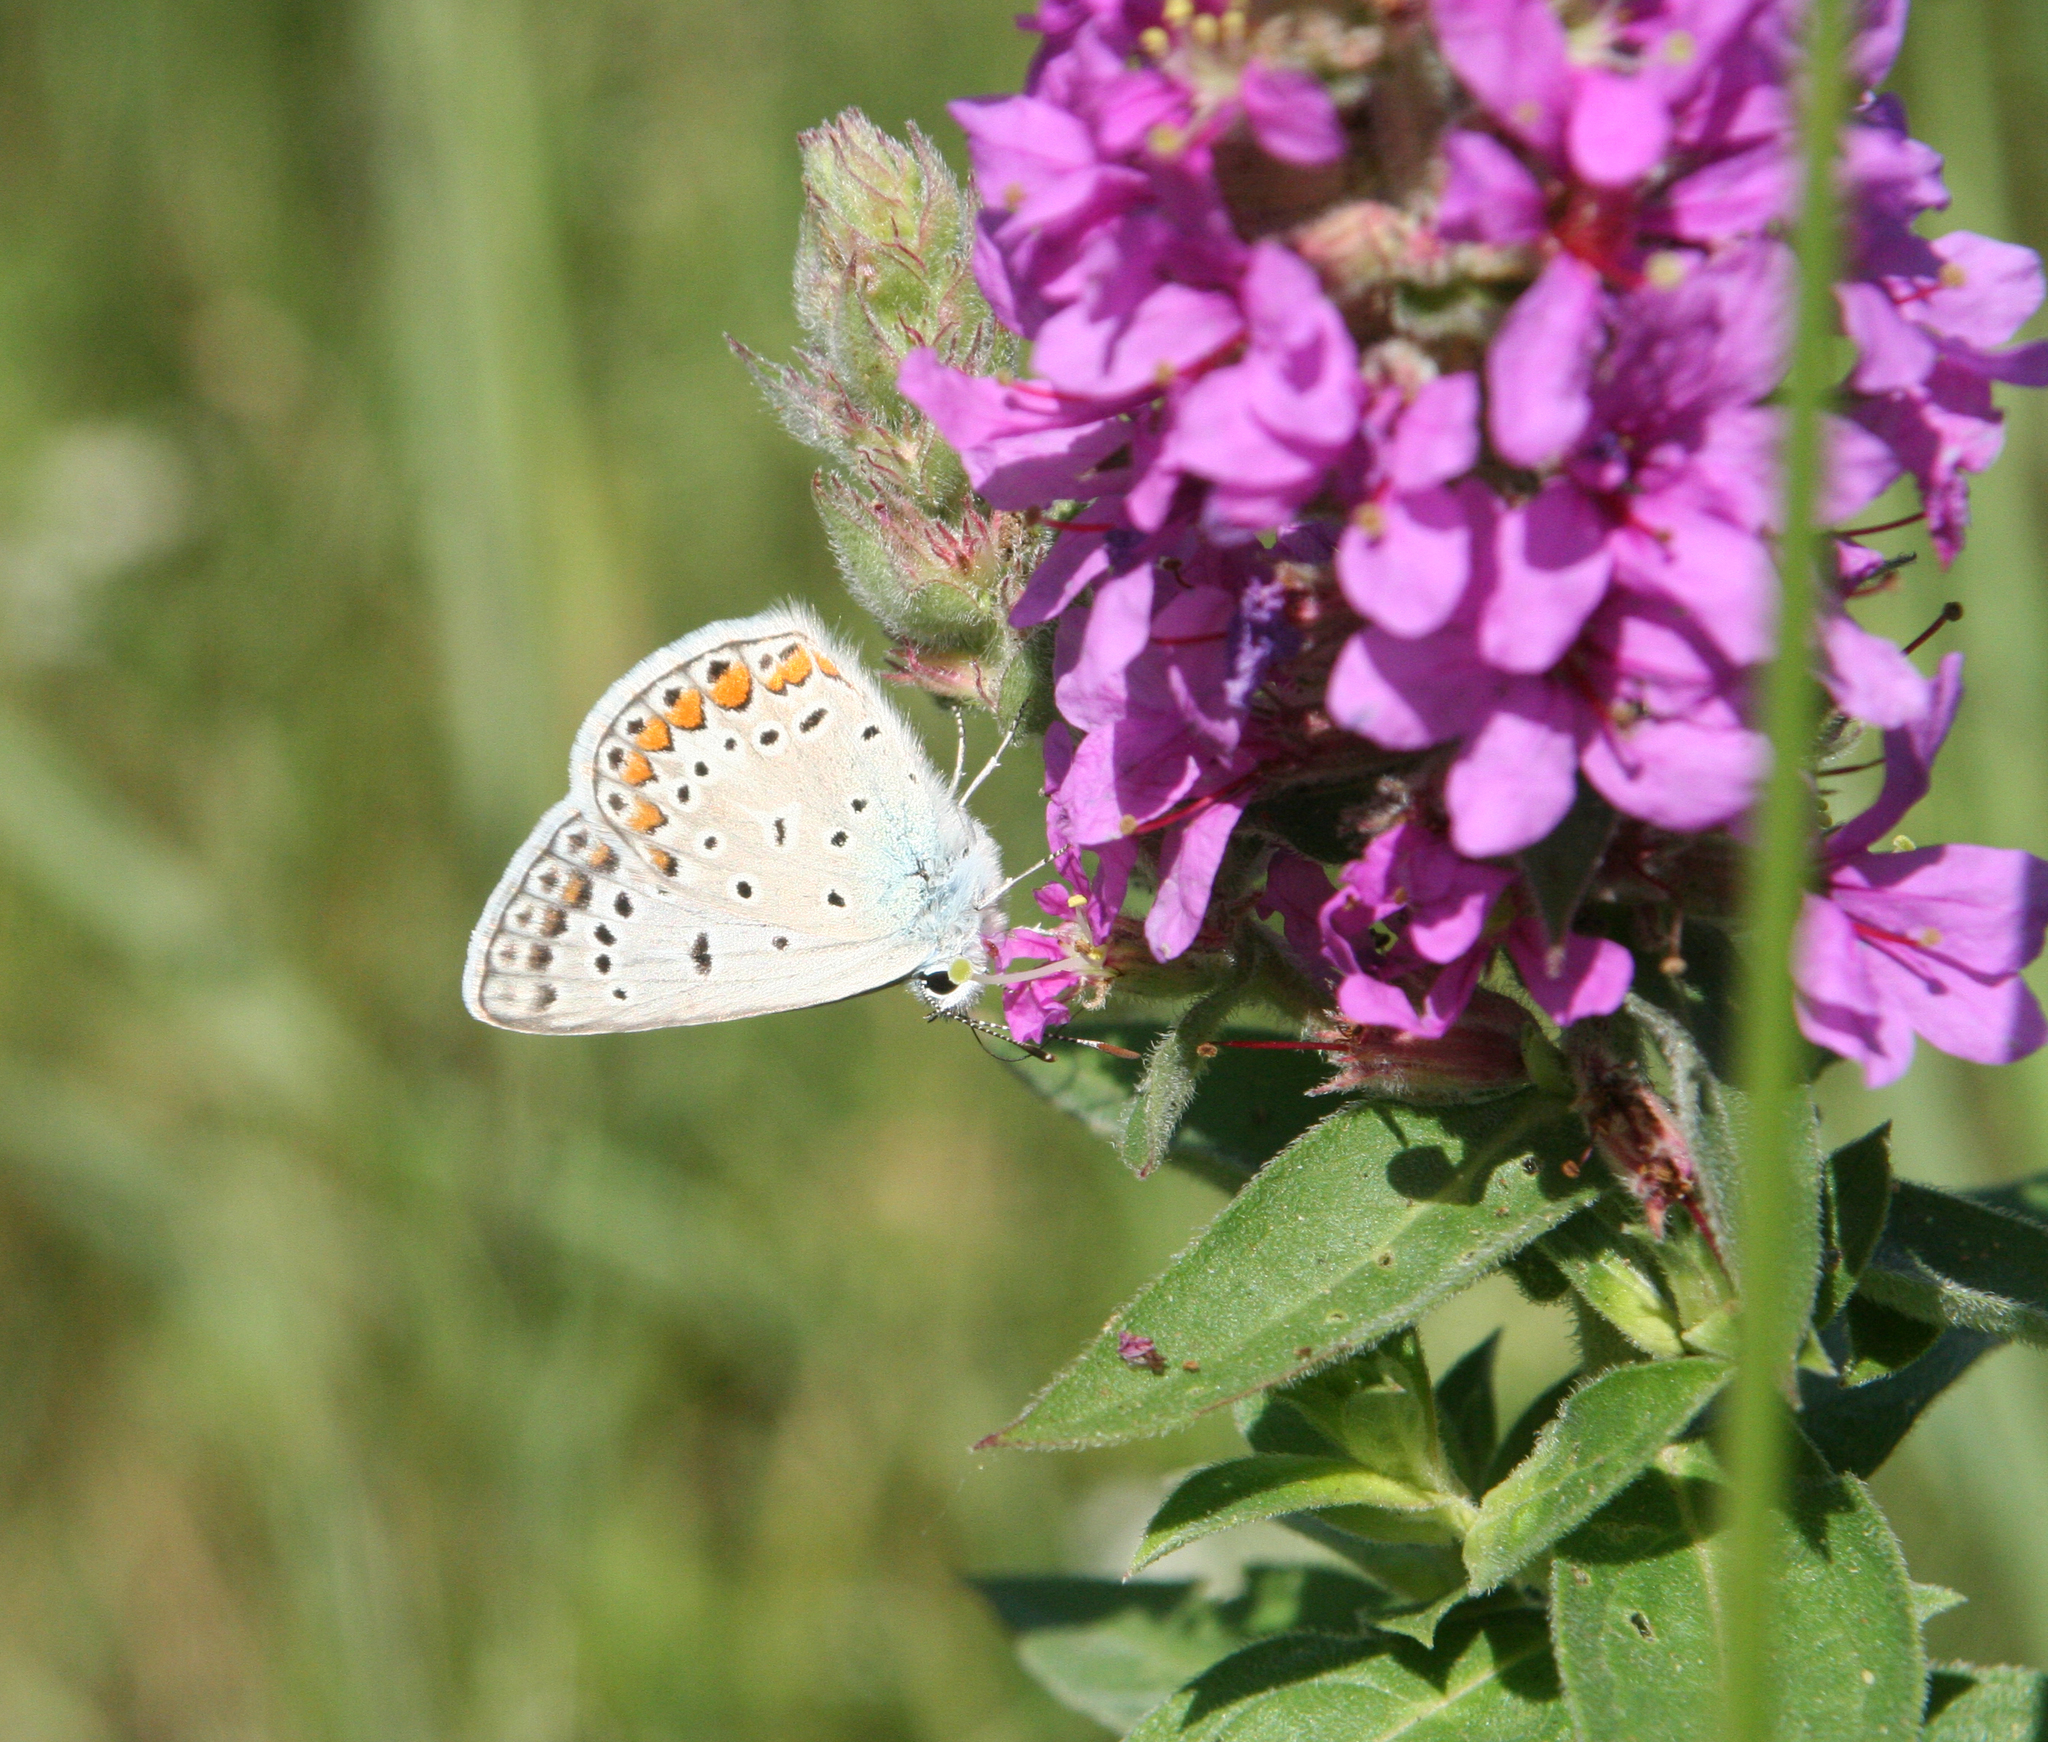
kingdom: Animalia
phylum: Arthropoda
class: Insecta
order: Lepidoptera
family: Lycaenidae
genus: Polyommatus
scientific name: Polyommatus icarus
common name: Common blue
